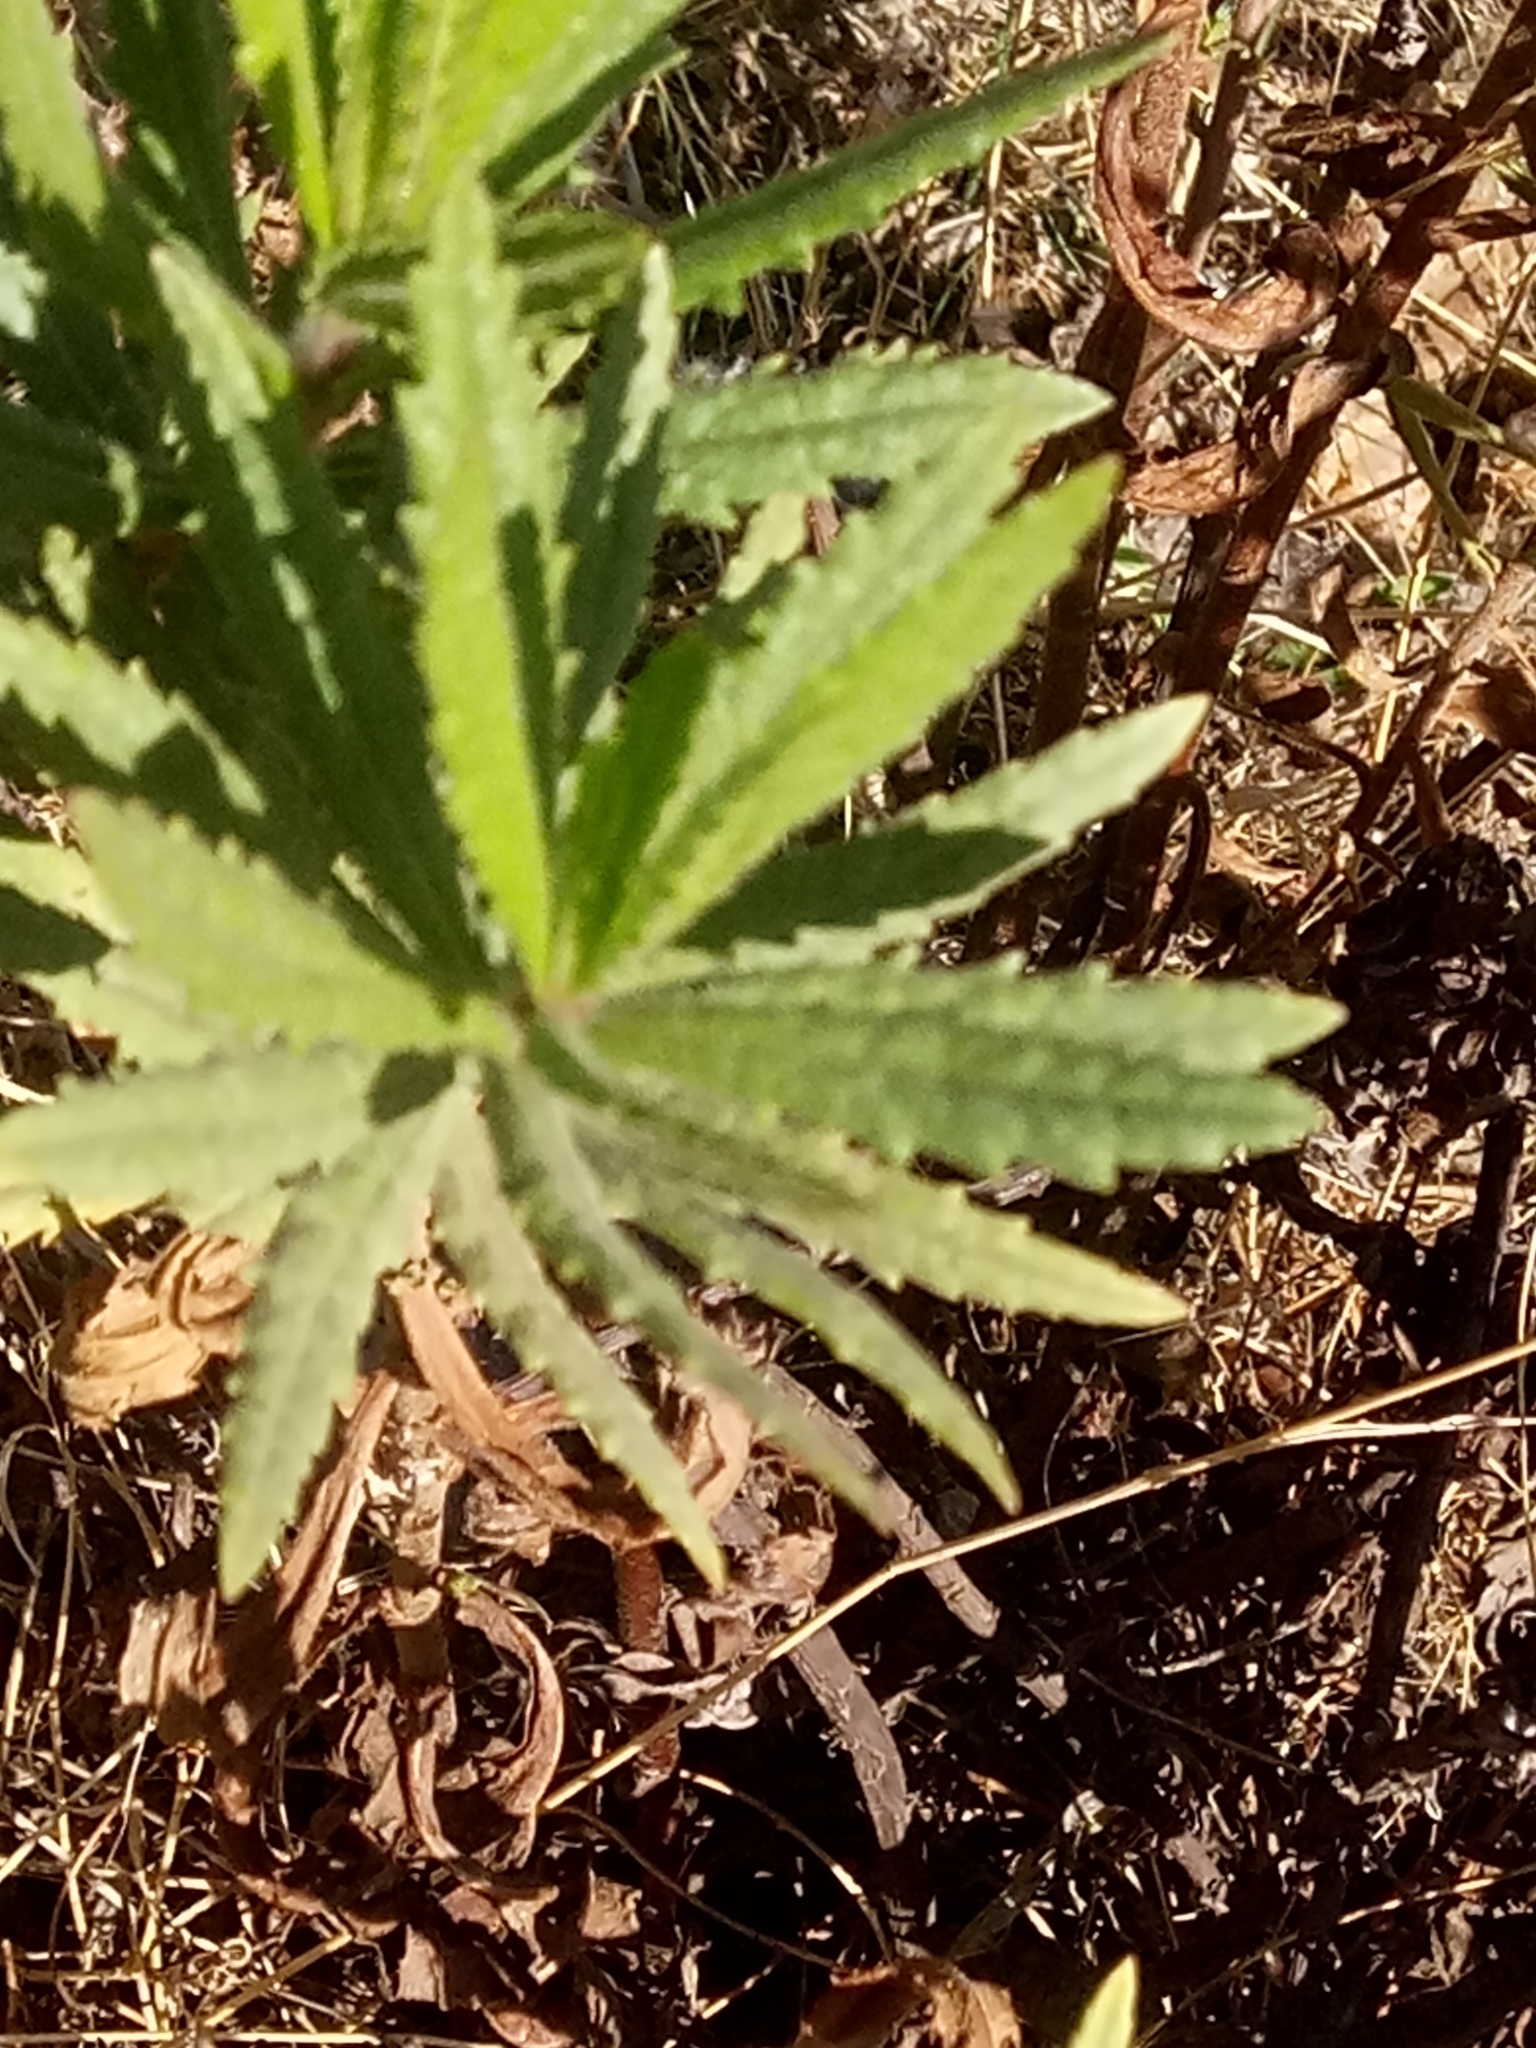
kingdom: Plantae
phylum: Tracheophyta
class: Magnoliopsida
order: Asterales
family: Asteraceae
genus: Dittrichia
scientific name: Dittrichia viscosa
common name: Woody fleabane
